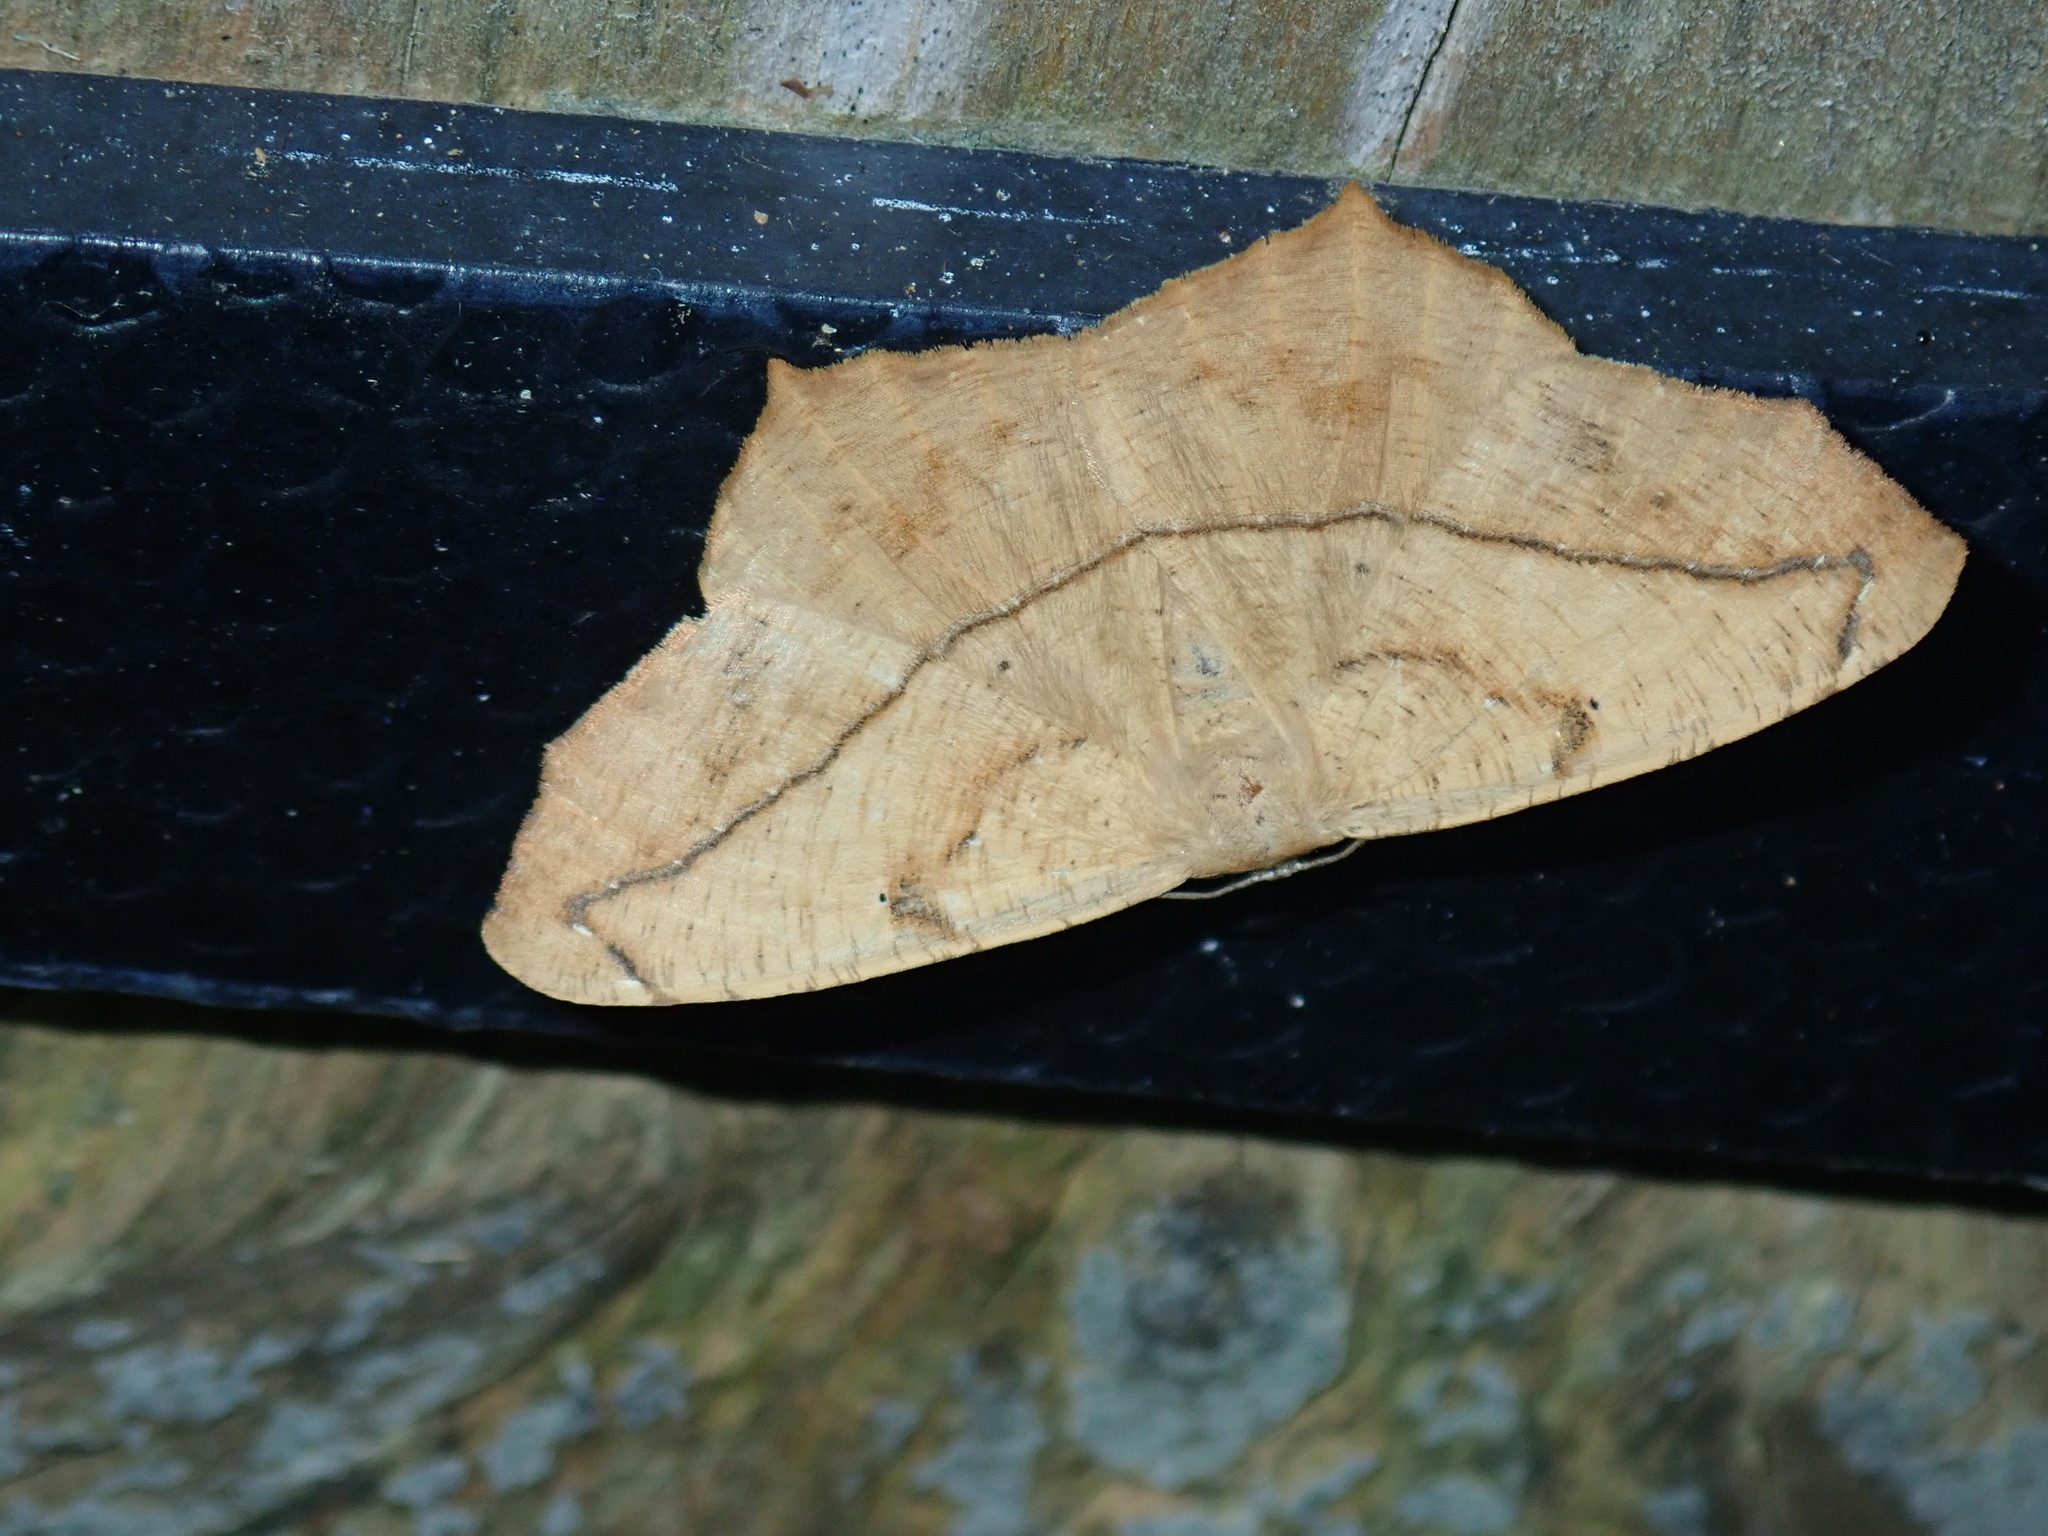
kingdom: Animalia
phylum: Arthropoda
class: Insecta
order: Lepidoptera
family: Geometridae
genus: Prochoerodes
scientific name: Prochoerodes lineola
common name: Large maple spanworm
